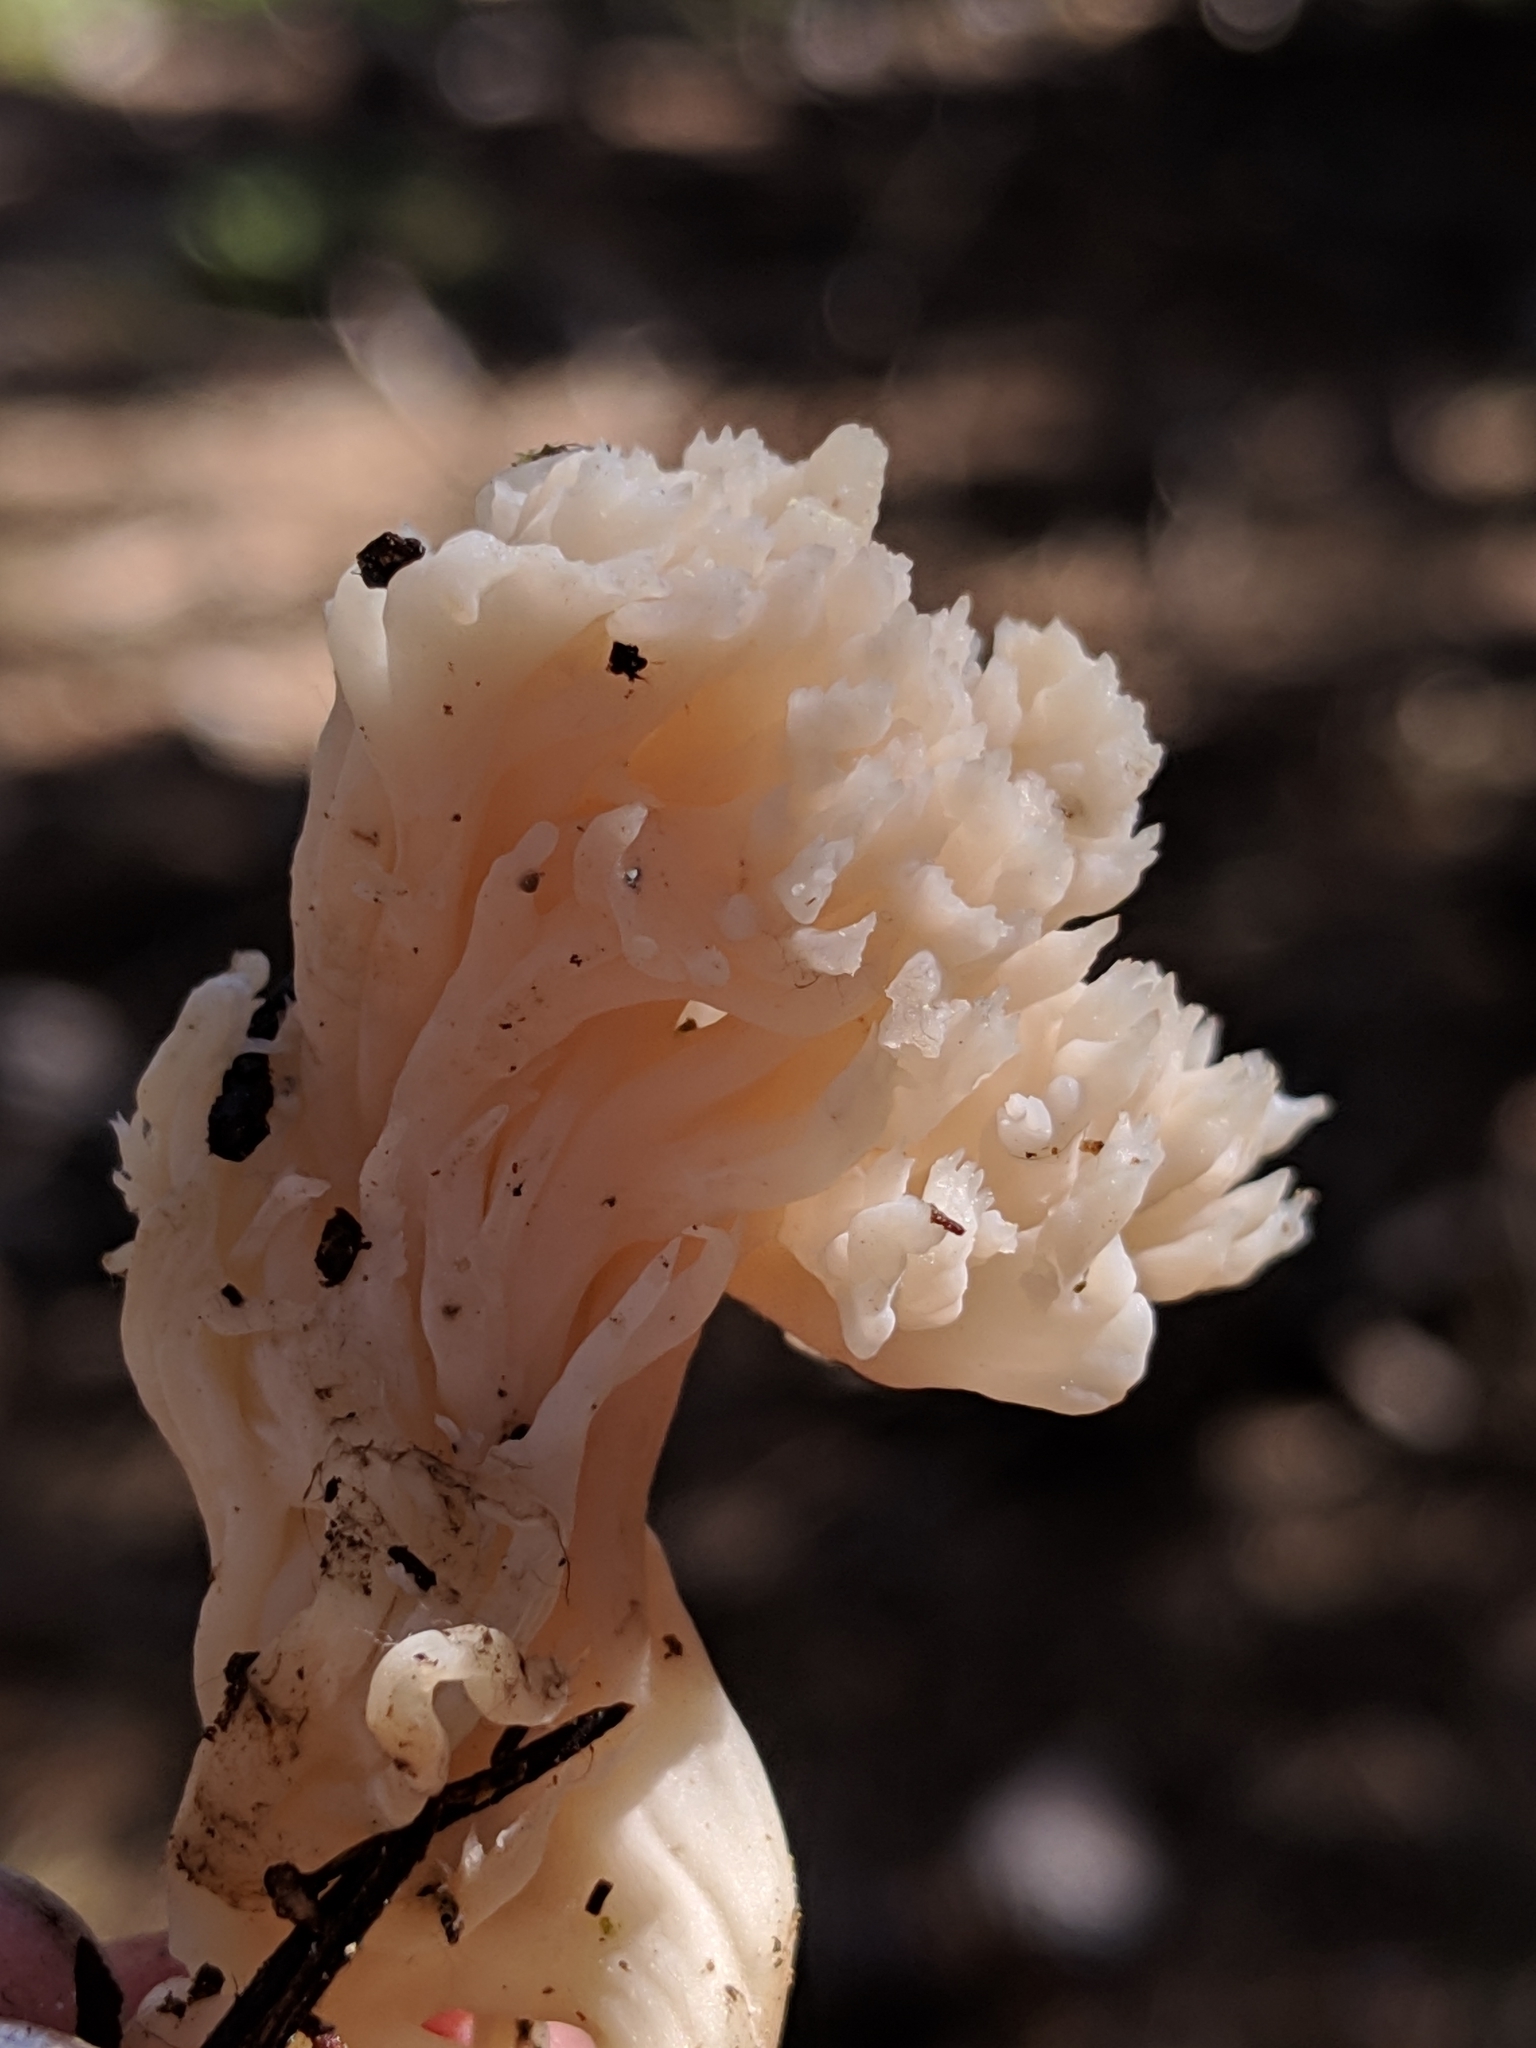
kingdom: Fungi
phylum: Basidiomycota
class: Agaricomycetes
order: Cantharellales
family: Hydnaceae
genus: Clavulina
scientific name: Clavulina rugosa
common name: Wrinkled club
